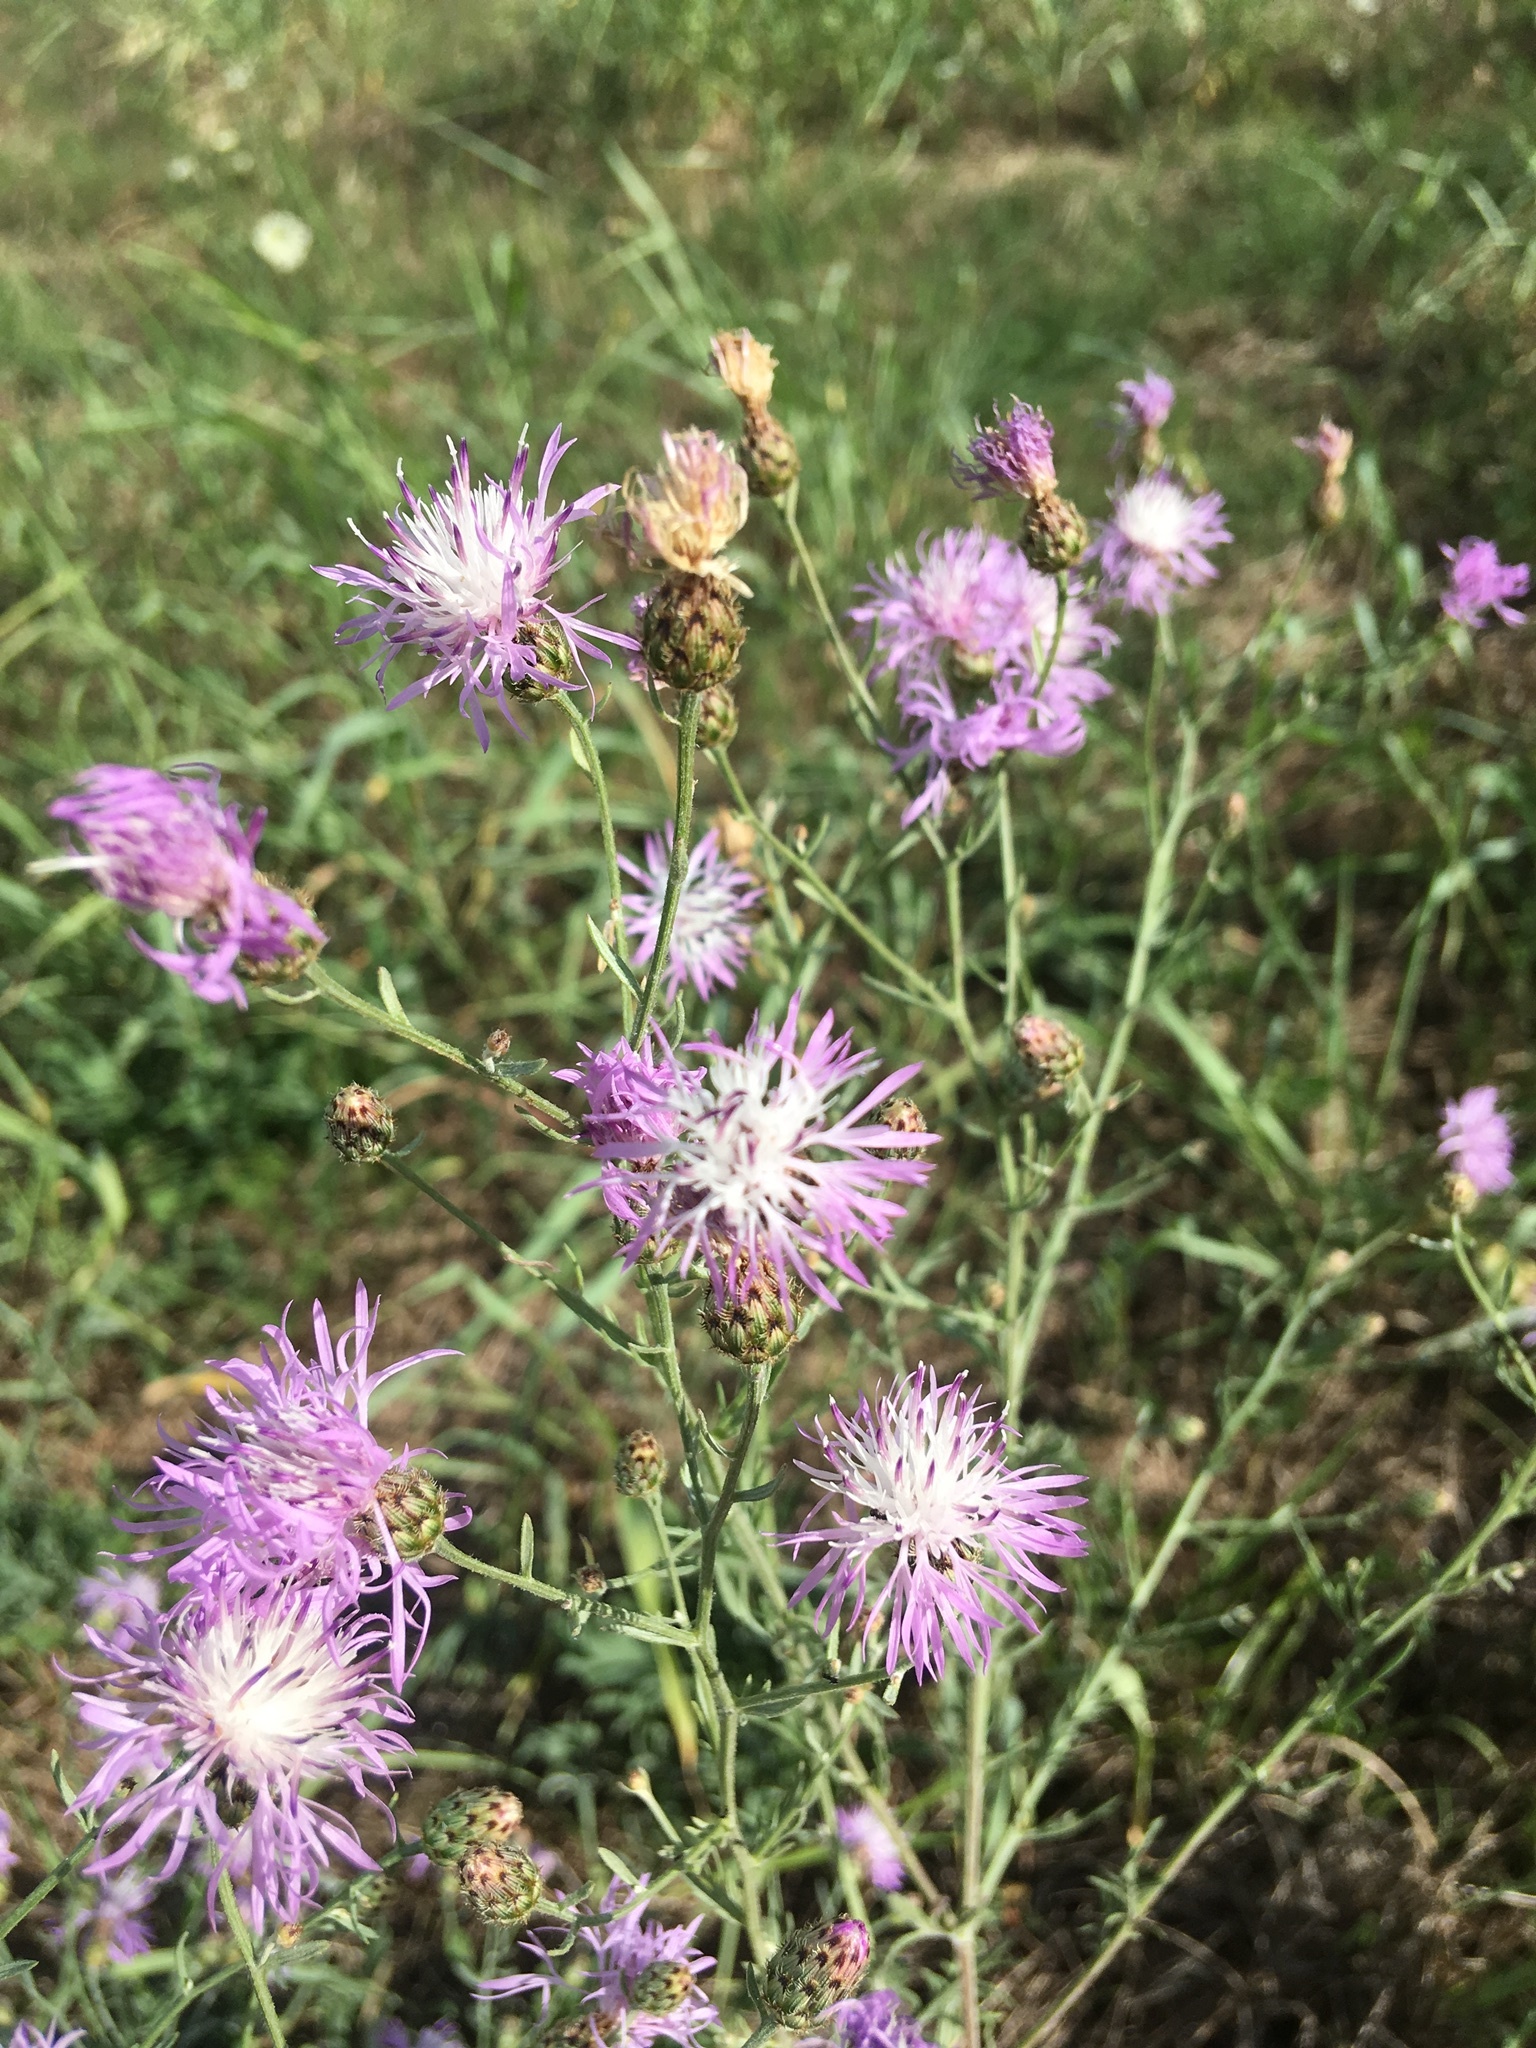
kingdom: Plantae
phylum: Tracheophyta
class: Magnoliopsida
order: Asterales
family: Asteraceae
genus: Centaurea
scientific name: Centaurea stoebe
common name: Spotted knapweed
